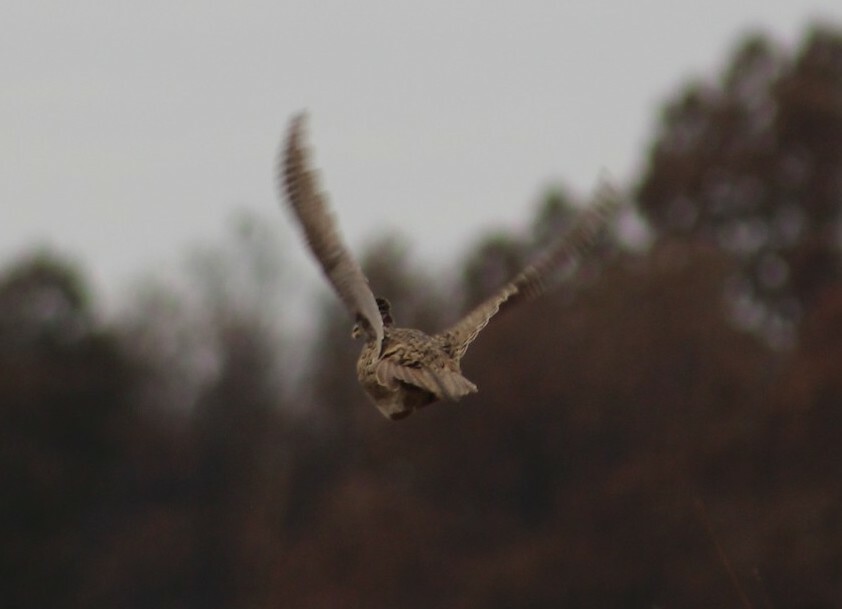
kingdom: Animalia
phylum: Chordata
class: Aves
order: Galliformes
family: Phasianidae
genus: Phasianus
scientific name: Phasianus colchicus
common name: Common pheasant
